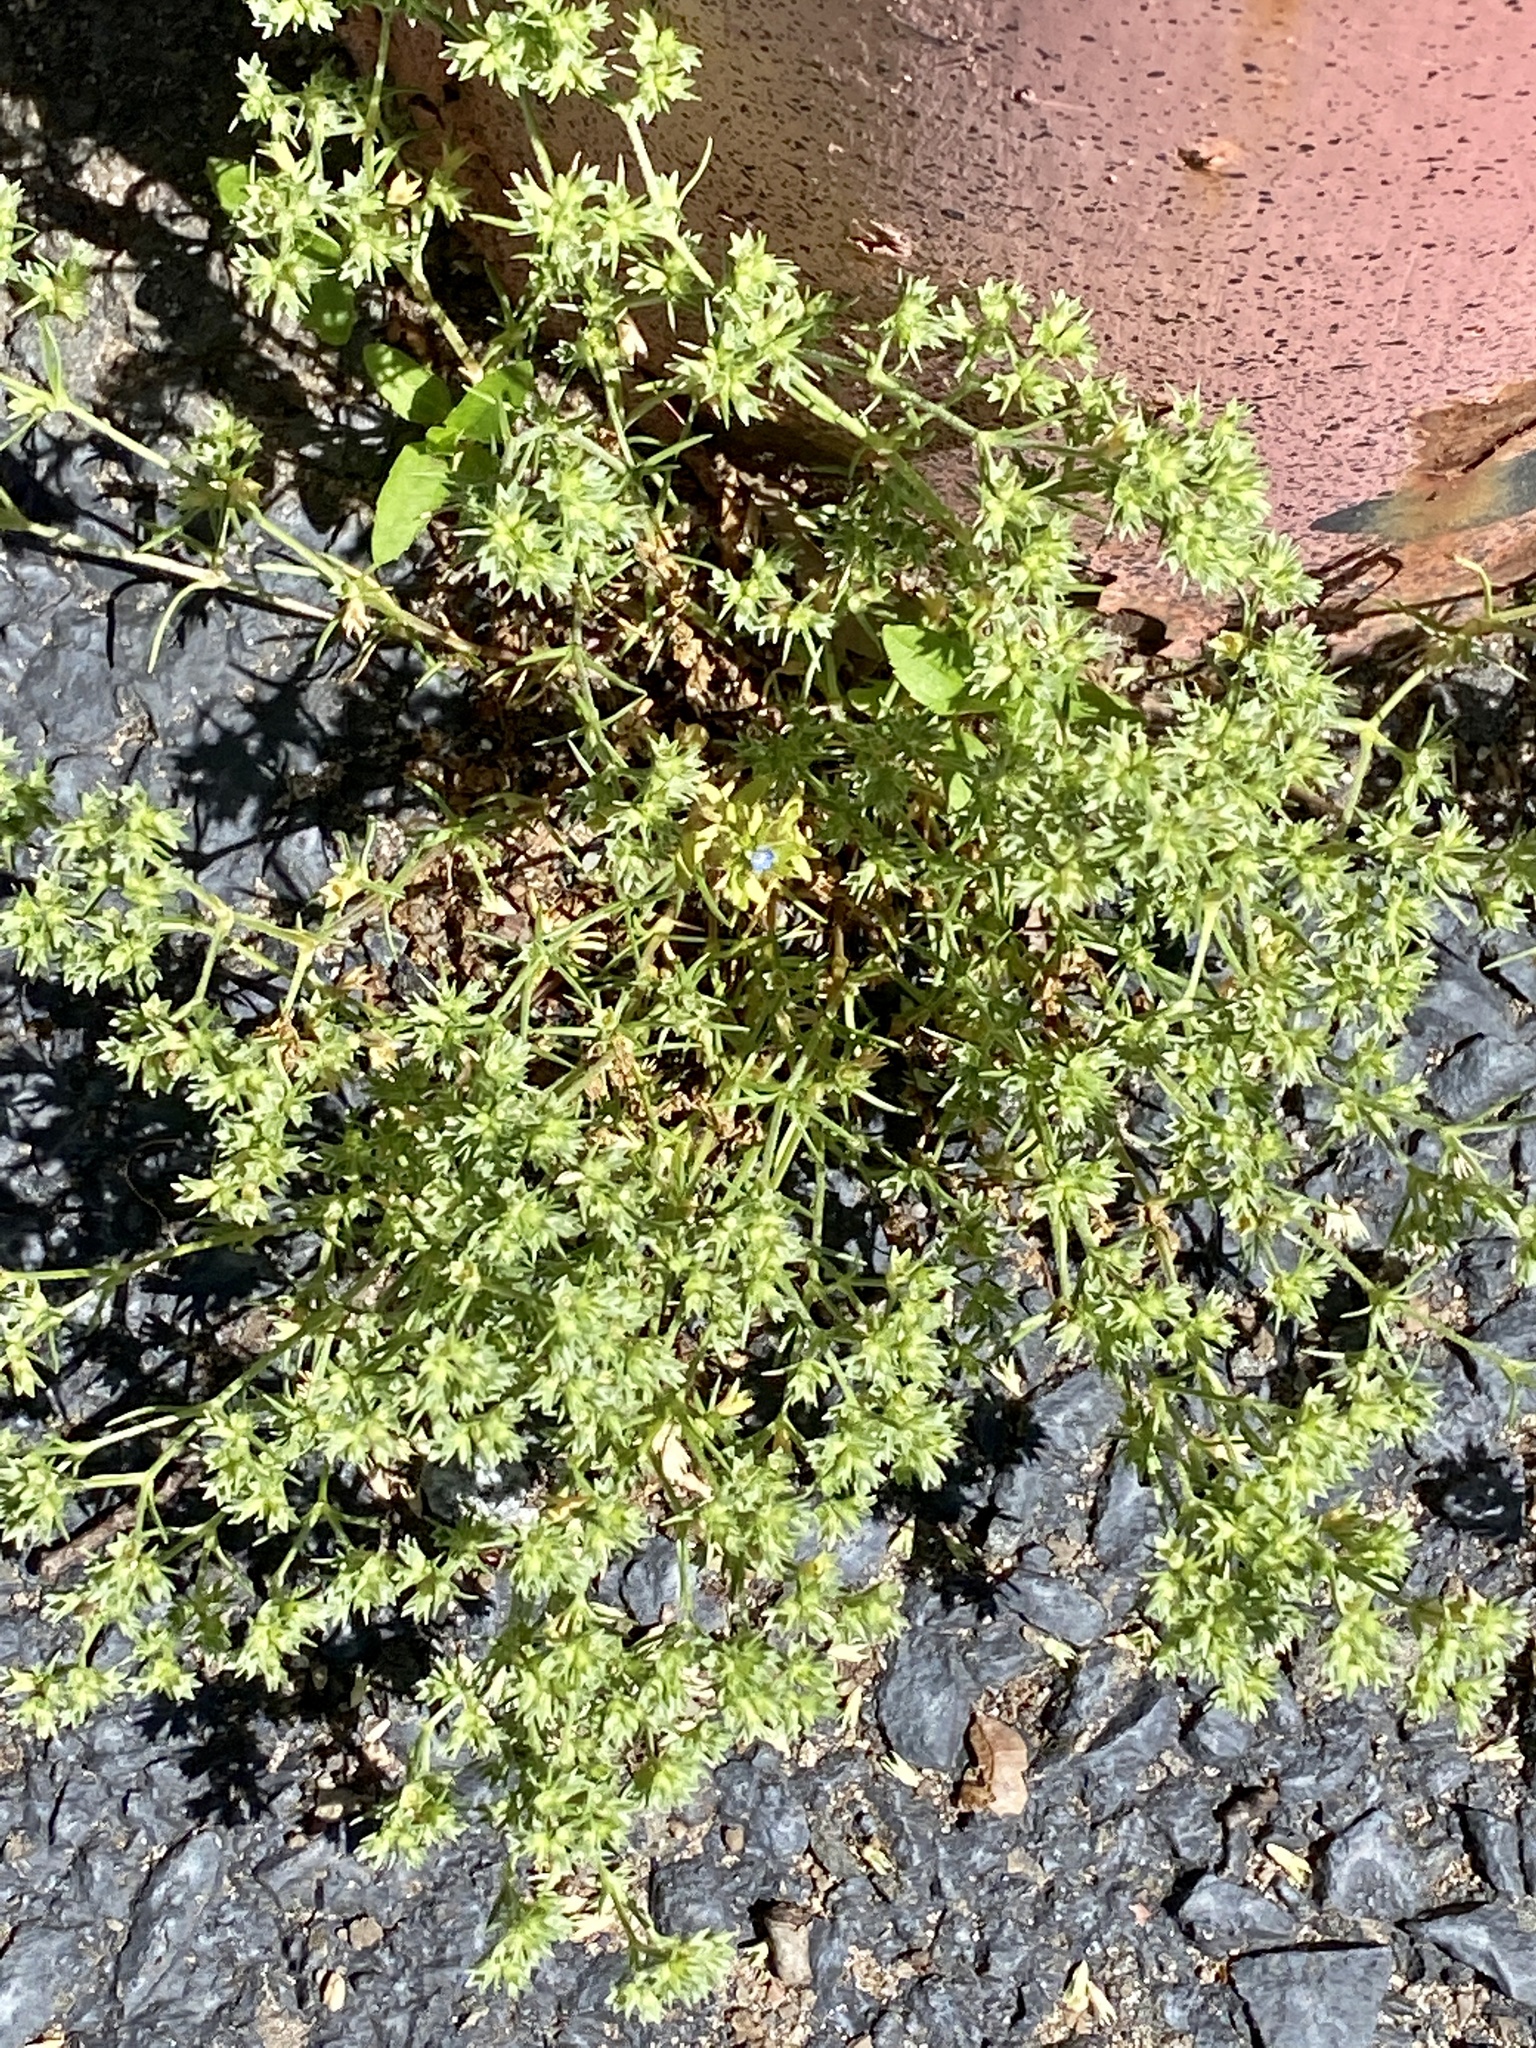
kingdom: Plantae
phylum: Tracheophyta
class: Magnoliopsida
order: Caryophyllales
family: Caryophyllaceae
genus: Scleranthus
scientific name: Scleranthus annuus
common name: Annual knawel
